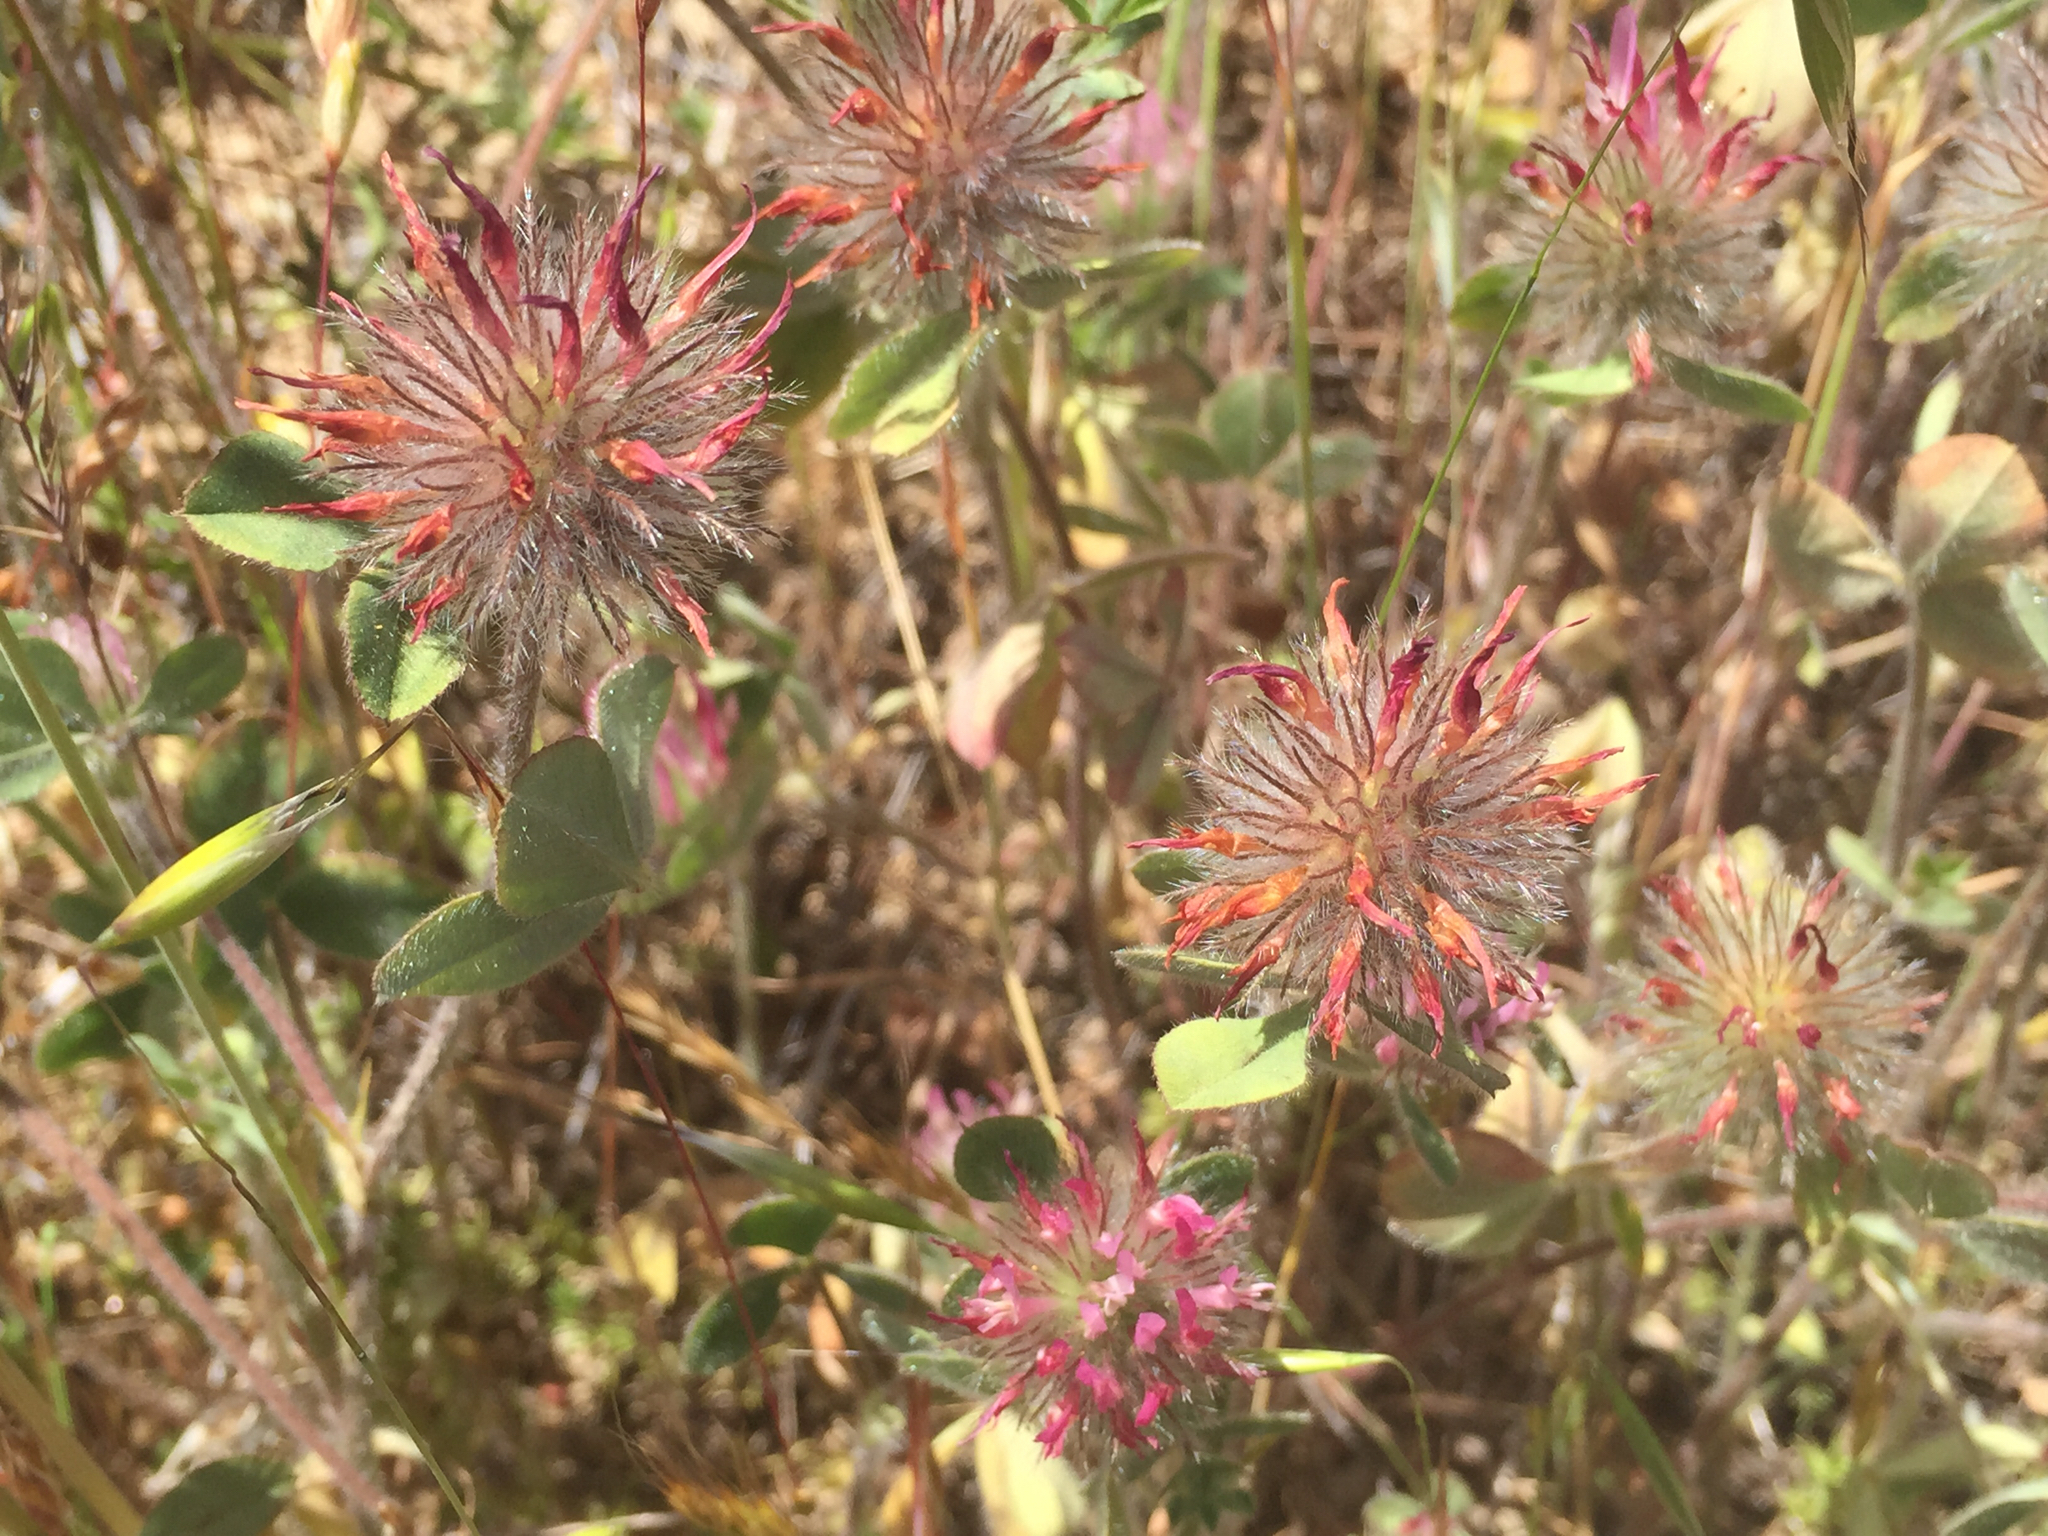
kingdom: Plantae
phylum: Tracheophyta
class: Magnoliopsida
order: Fabales
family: Fabaceae
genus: Trifolium
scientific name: Trifolium hirtum
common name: Rose clover
